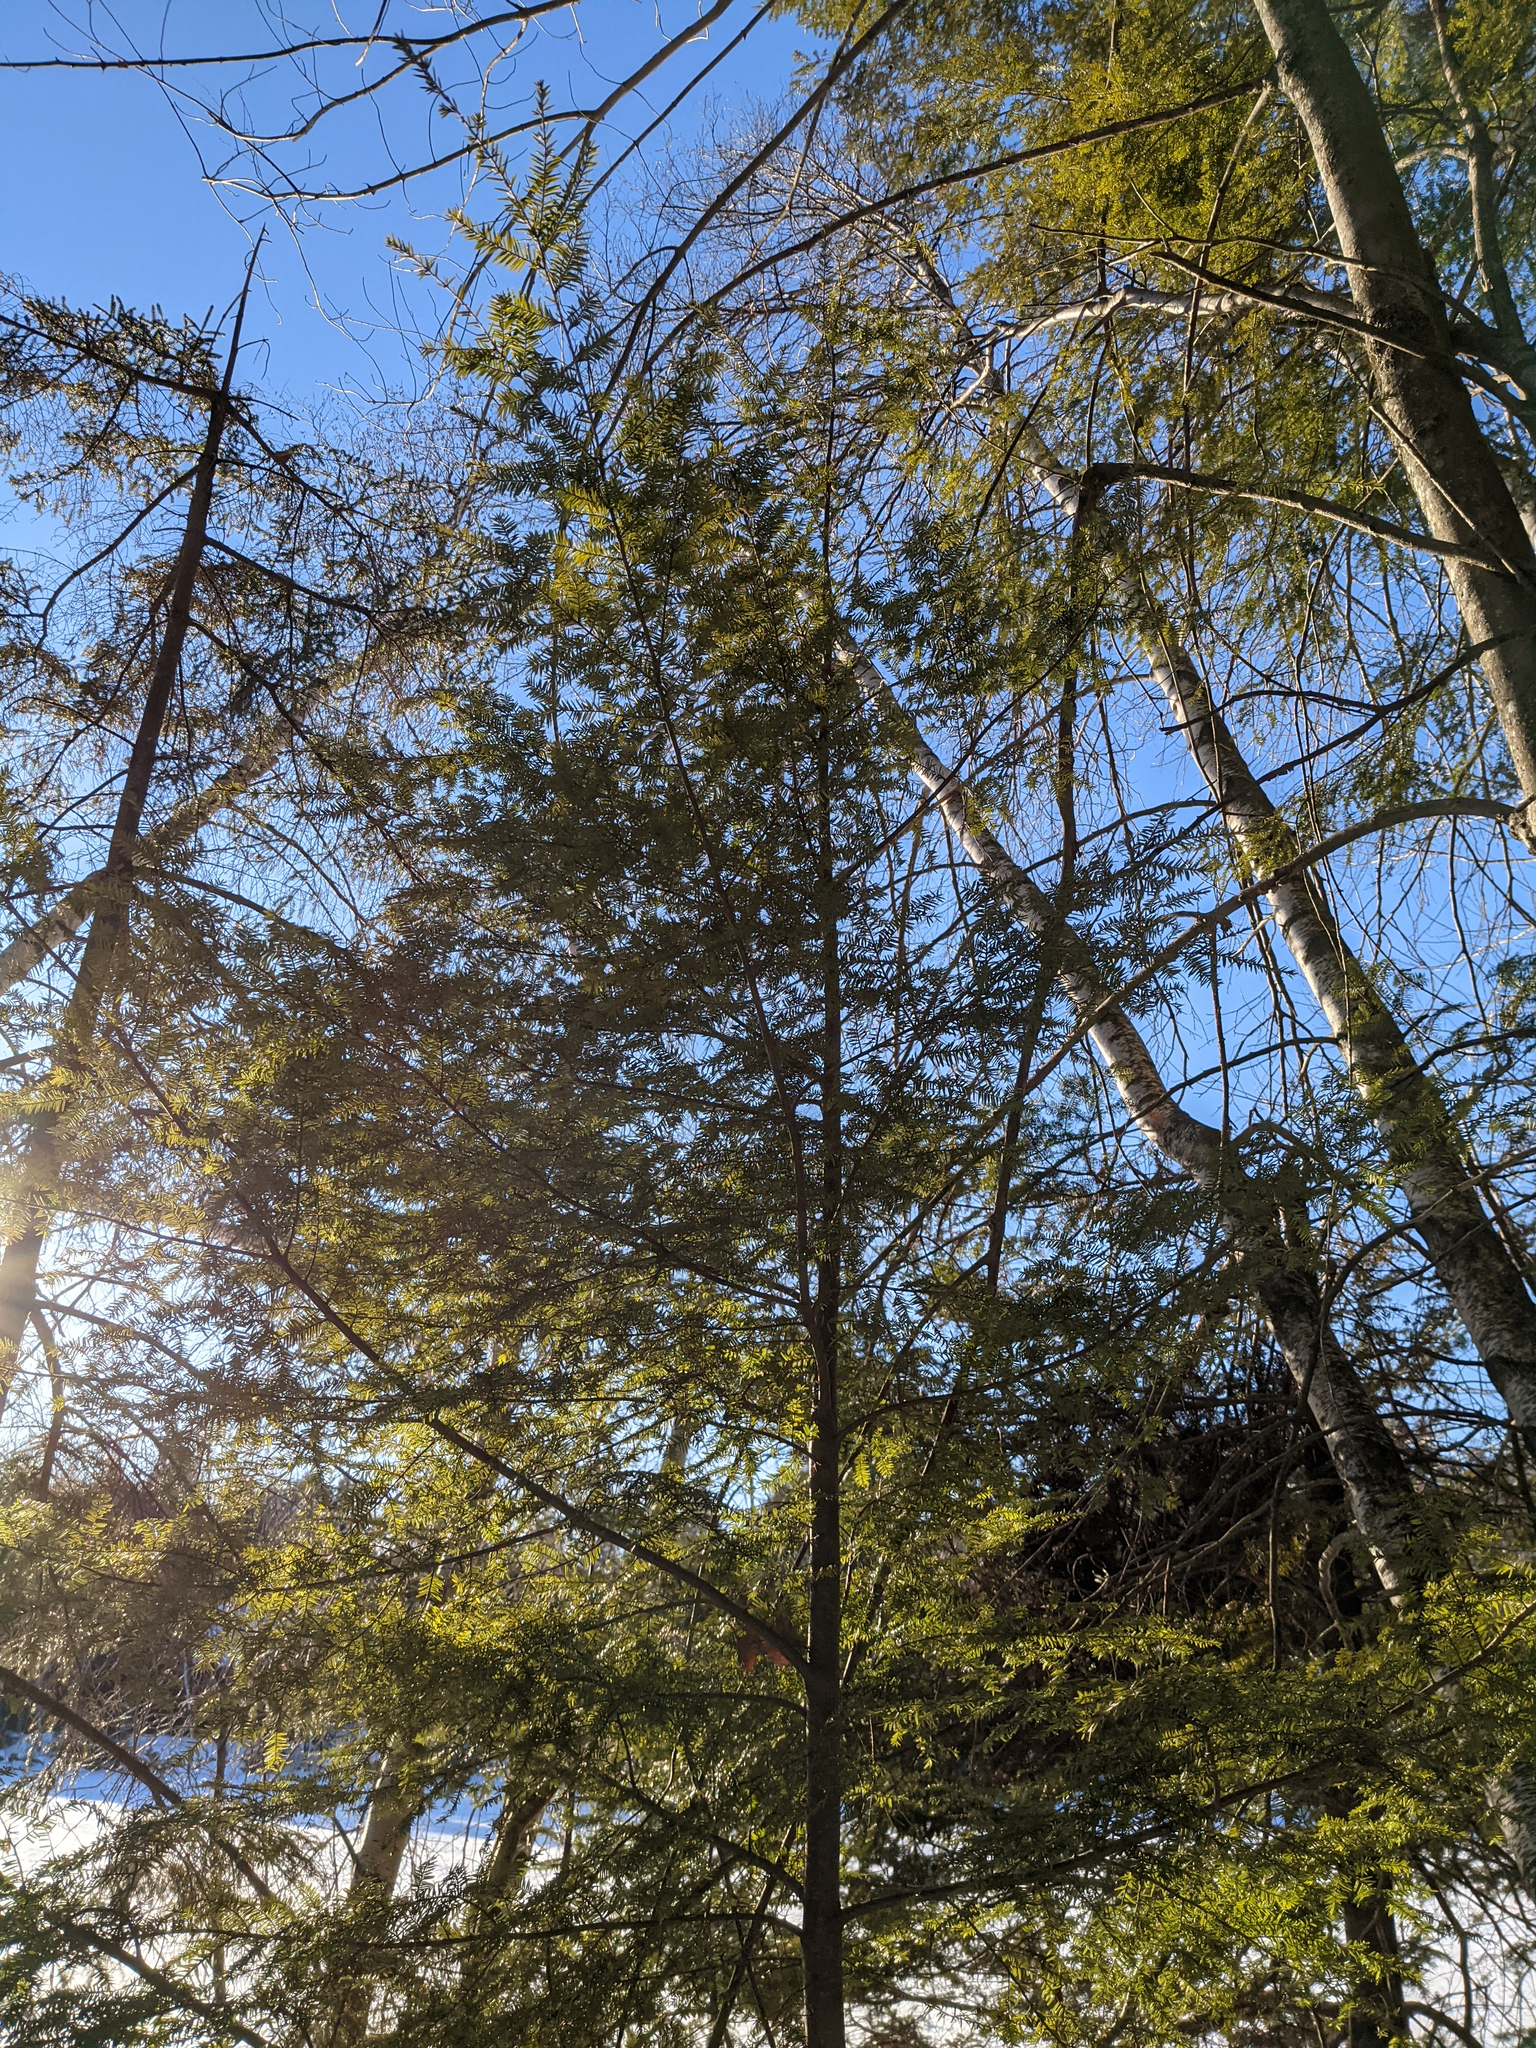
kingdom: Plantae
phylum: Tracheophyta
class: Pinopsida
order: Pinales
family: Pinaceae
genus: Tsuga
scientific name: Tsuga canadensis
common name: Eastern hemlock
